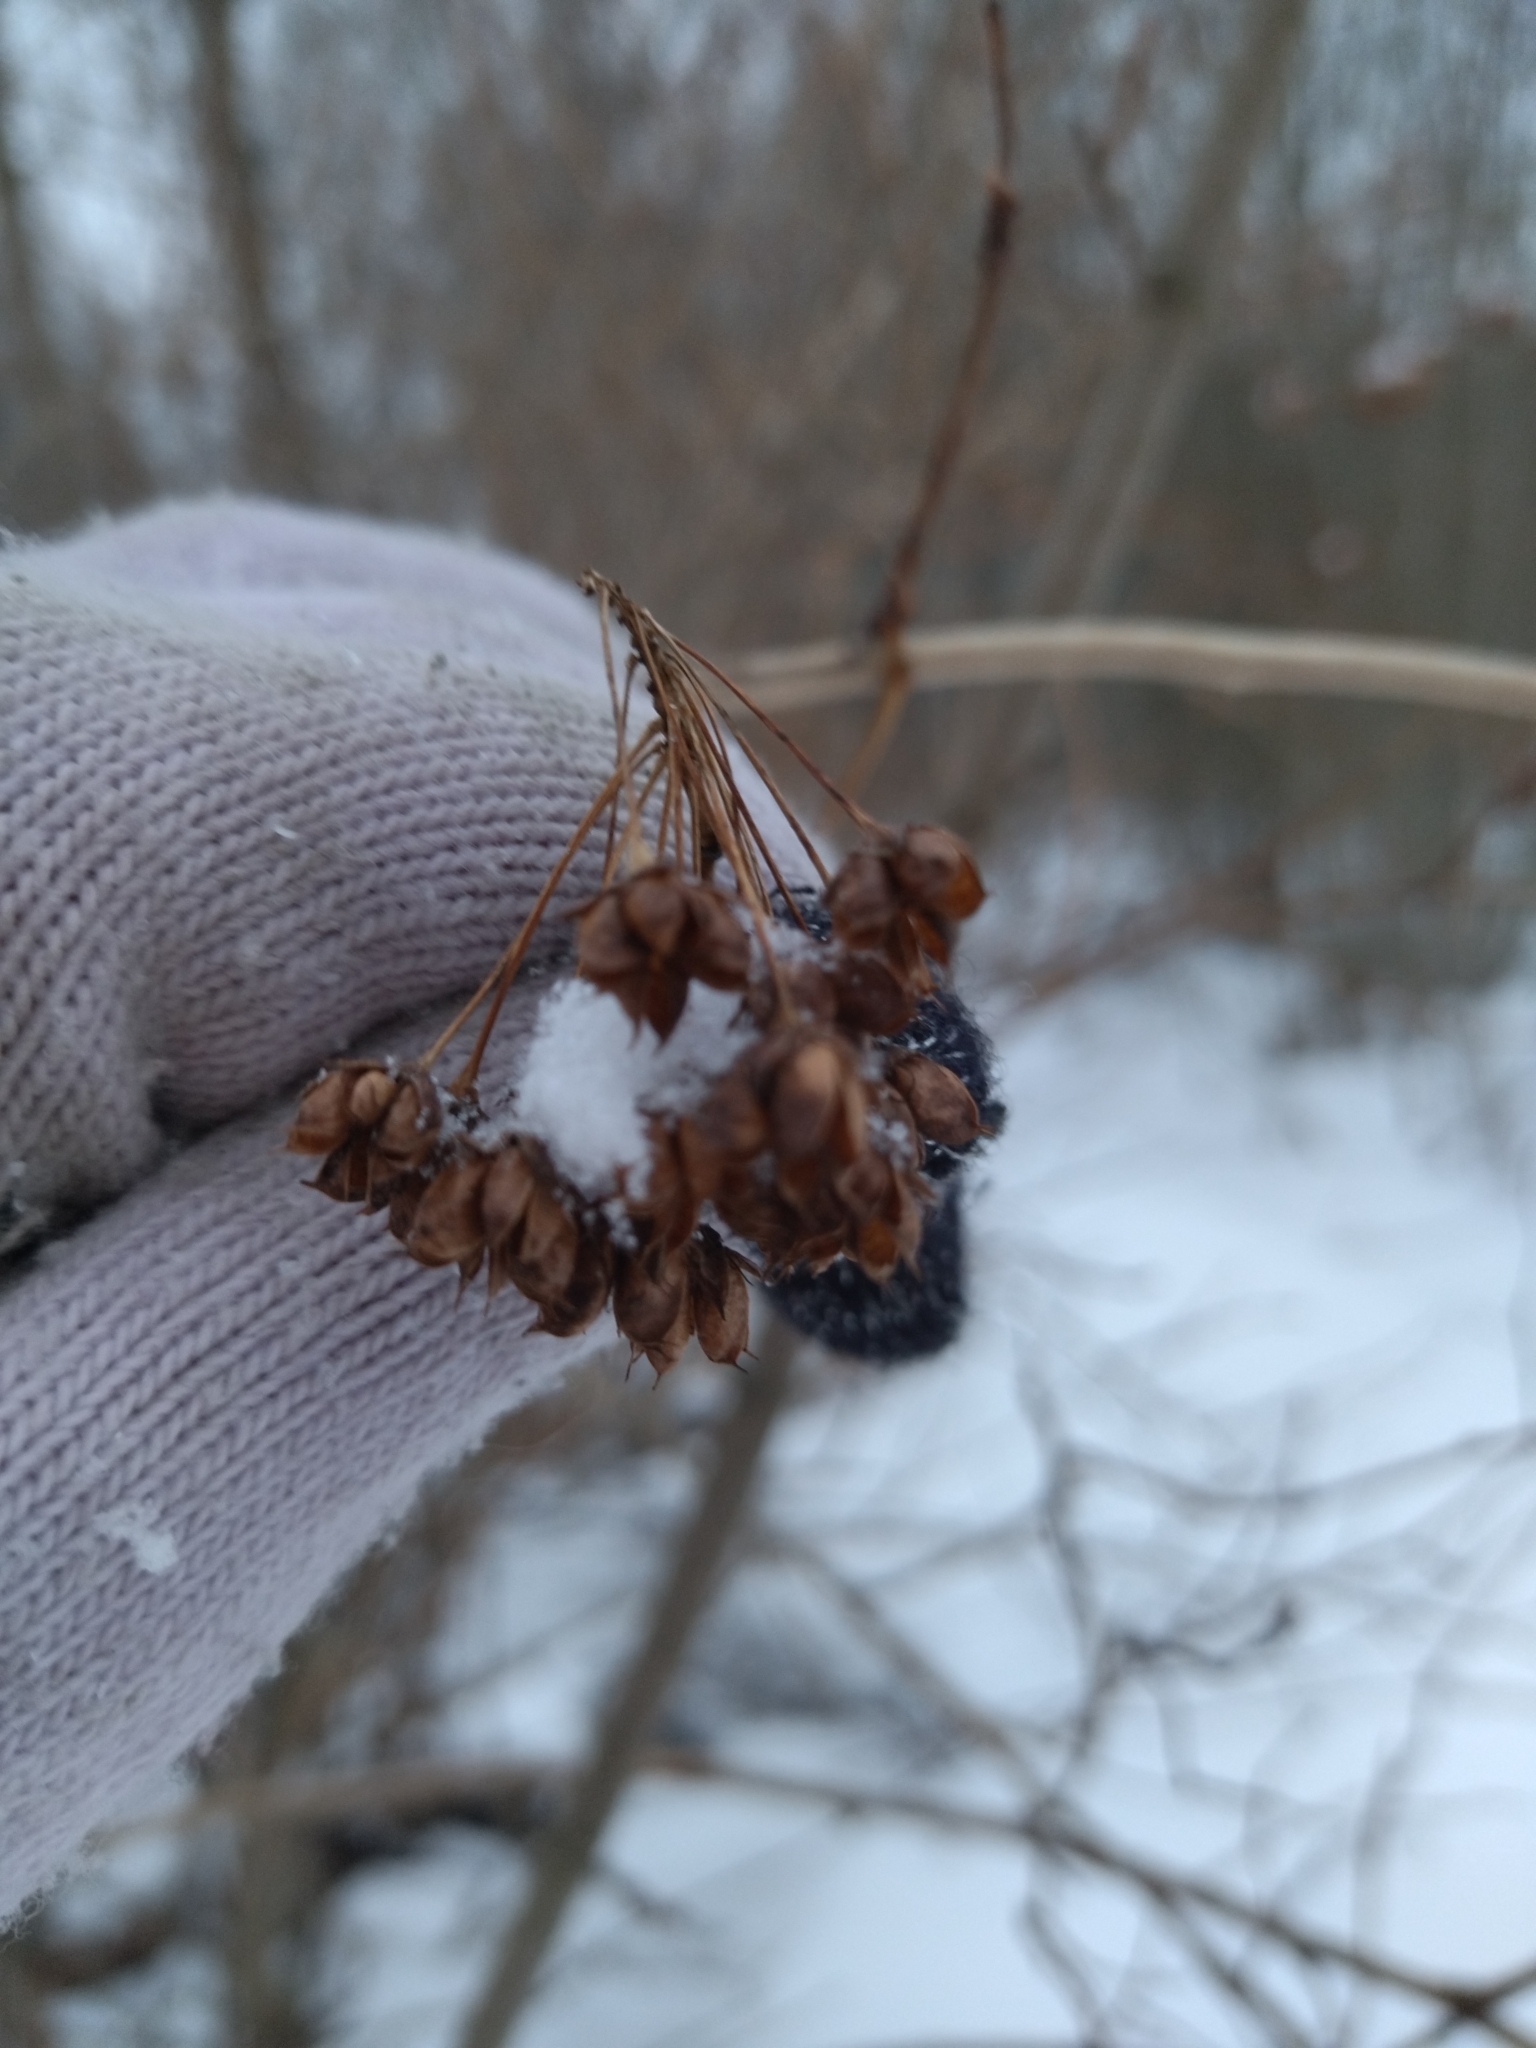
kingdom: Plantae
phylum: Tracheophyta
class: Magnoliopsida
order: Rosales
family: Rosaceae
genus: Physocarpus
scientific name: Physocarpus opulifolius
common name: Ninebark
